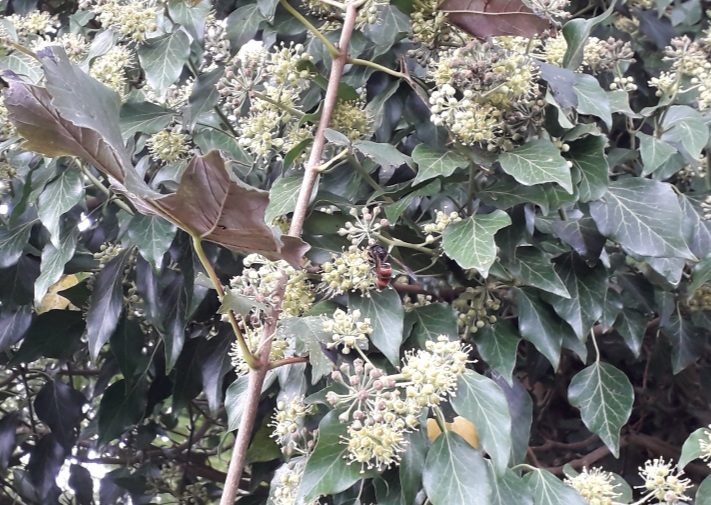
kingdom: Animalia
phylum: Arthropoda
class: Insecta
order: Hymenoptera
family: Vespidae
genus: Vespa
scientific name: Vespa velutina
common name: Asian hornet
